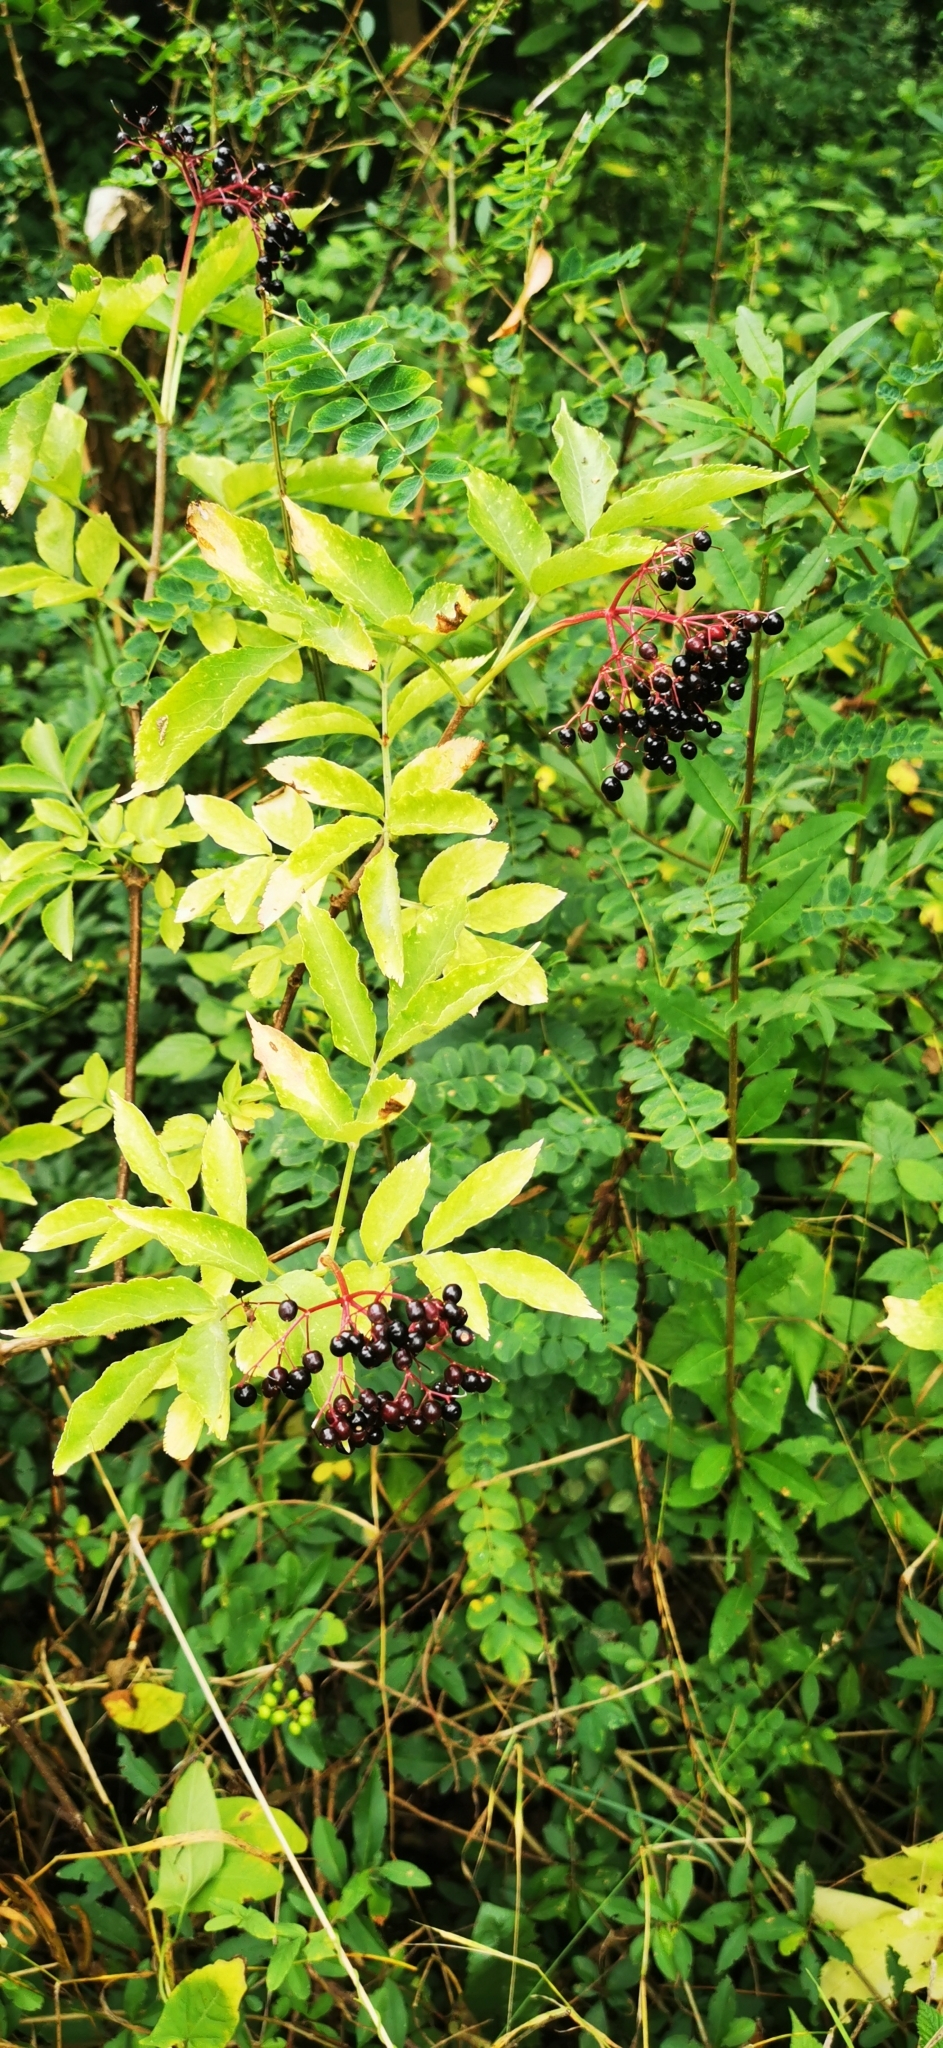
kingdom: Plantae
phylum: Tracheophyta
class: Magnoliopsida
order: Dipsacales
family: Viburnaceae
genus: Sambucus
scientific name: Sambucus nigra
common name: Elder
